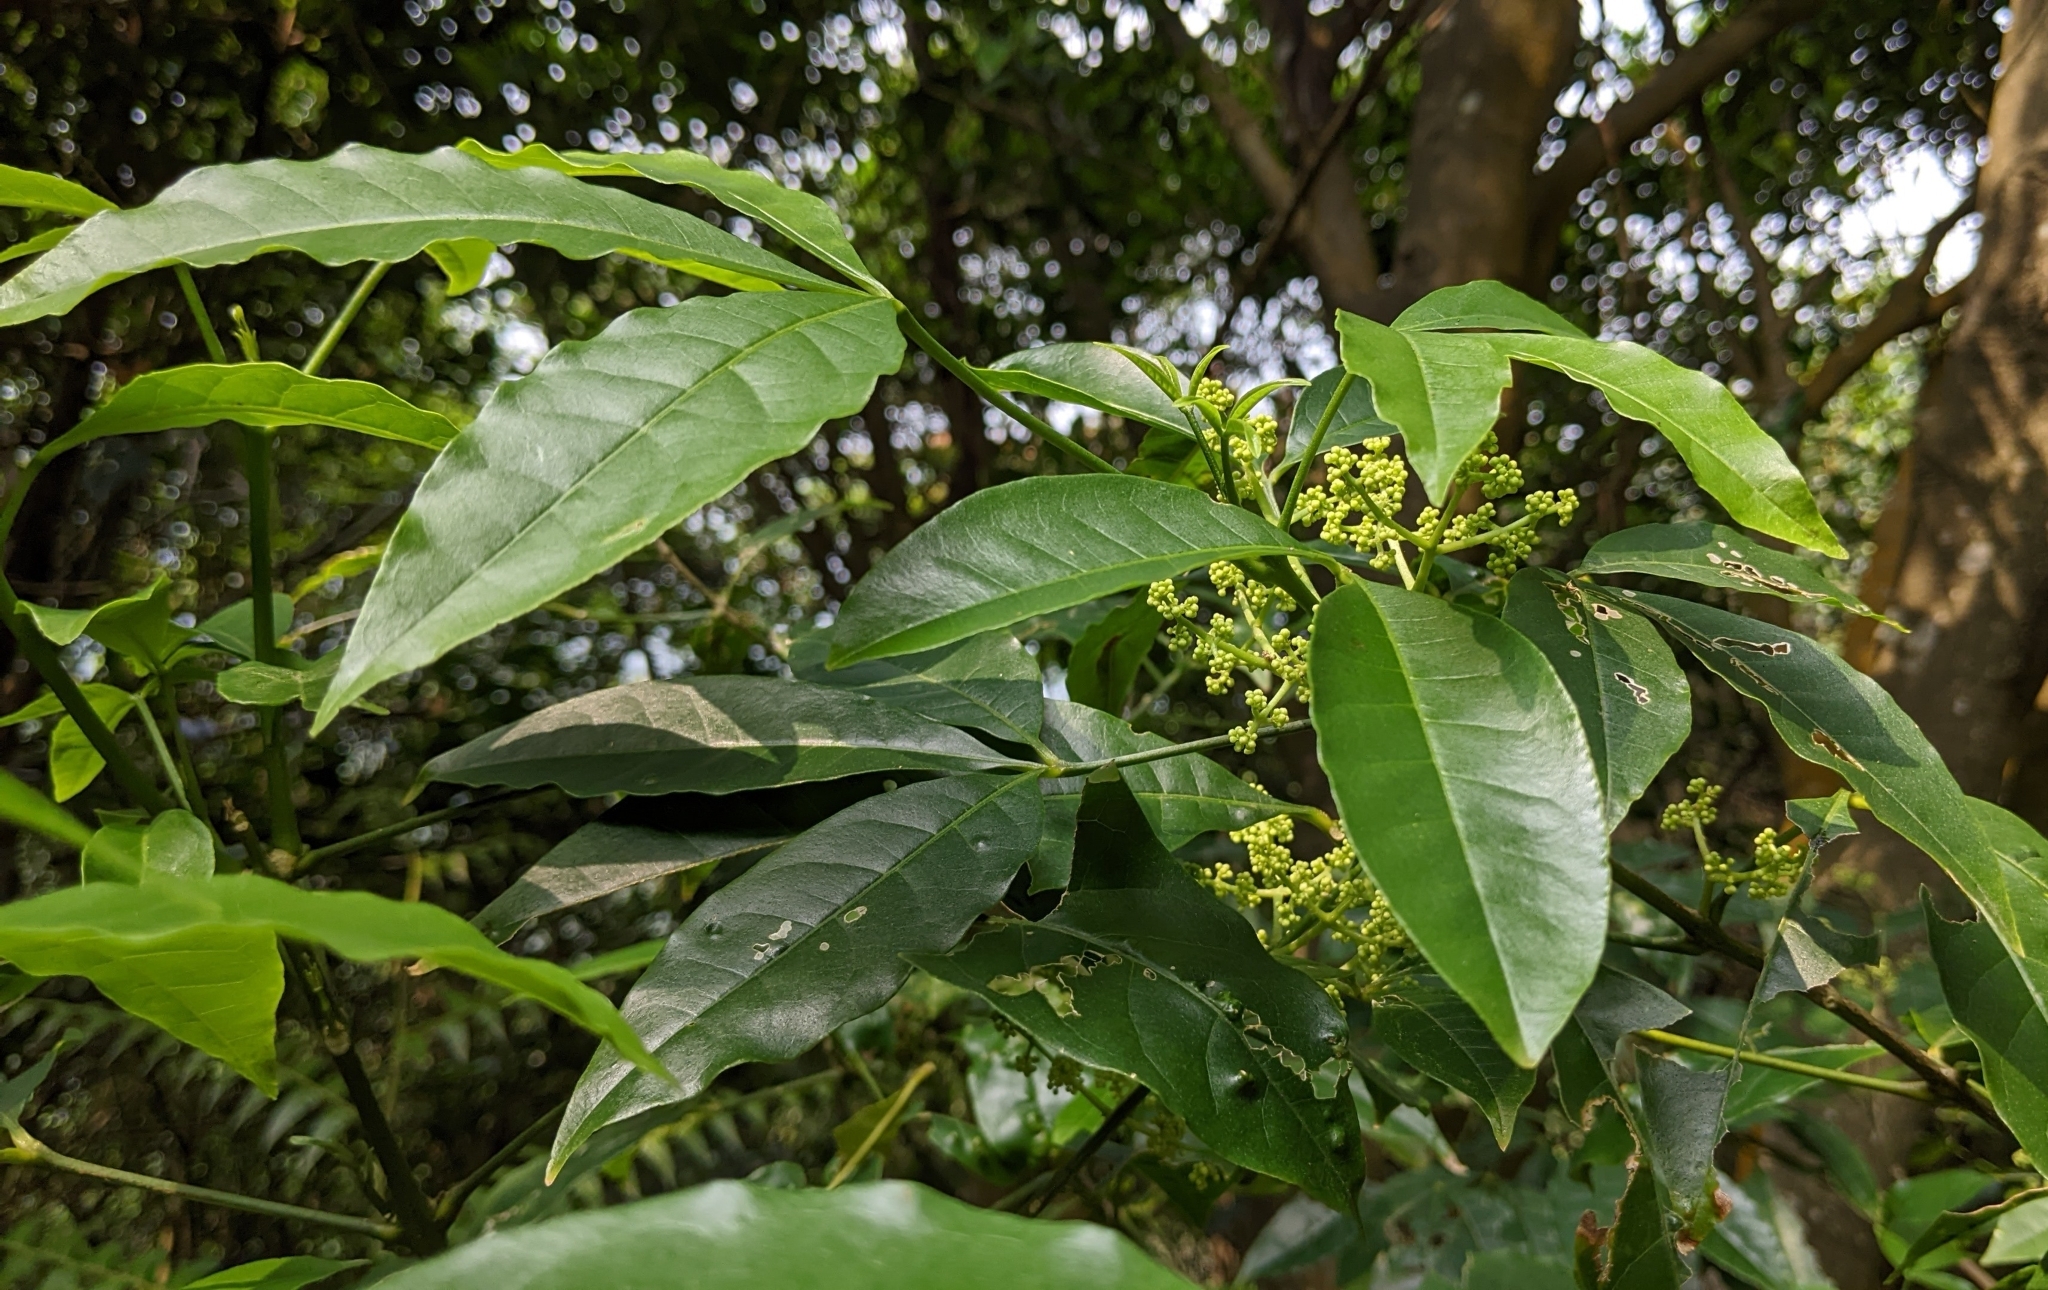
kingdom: Plantae
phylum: Tracheophyta
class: Magnoliopsida
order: Sapindales
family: Rutaceae
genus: Melicope
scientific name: Melicope pteleifolia
